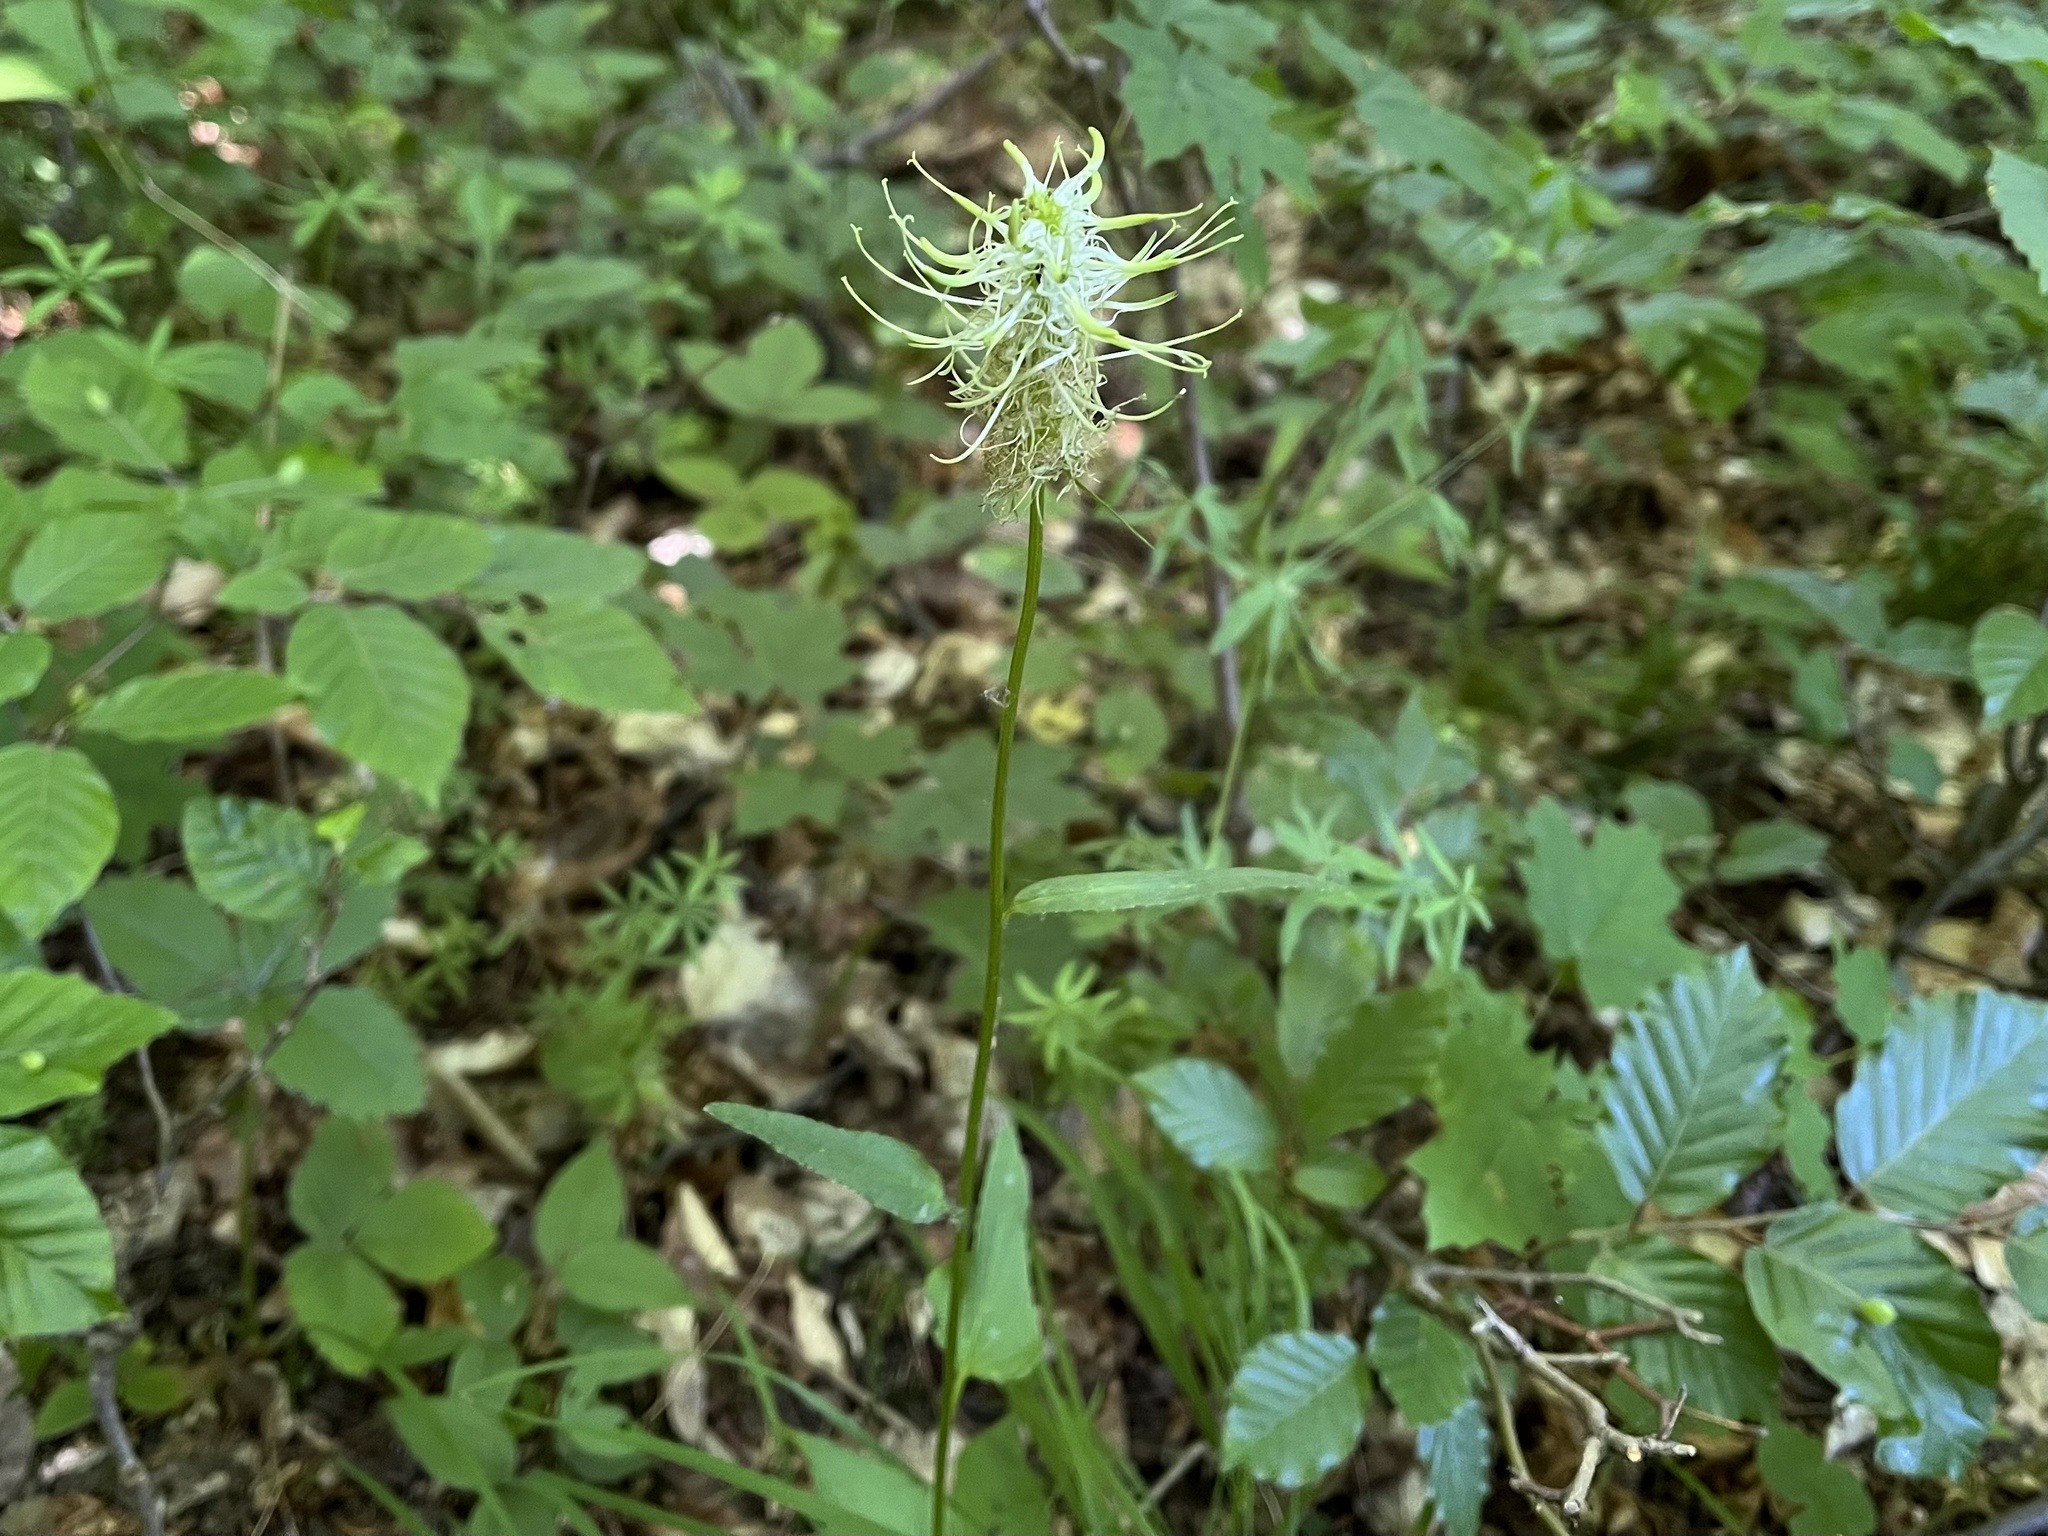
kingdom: Plantae
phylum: Tracheophyta
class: Magnoliopsida
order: Asterales
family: Campanulaceae
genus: Phyteuma
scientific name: Phyteuma spicatum
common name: Spiked rampion
